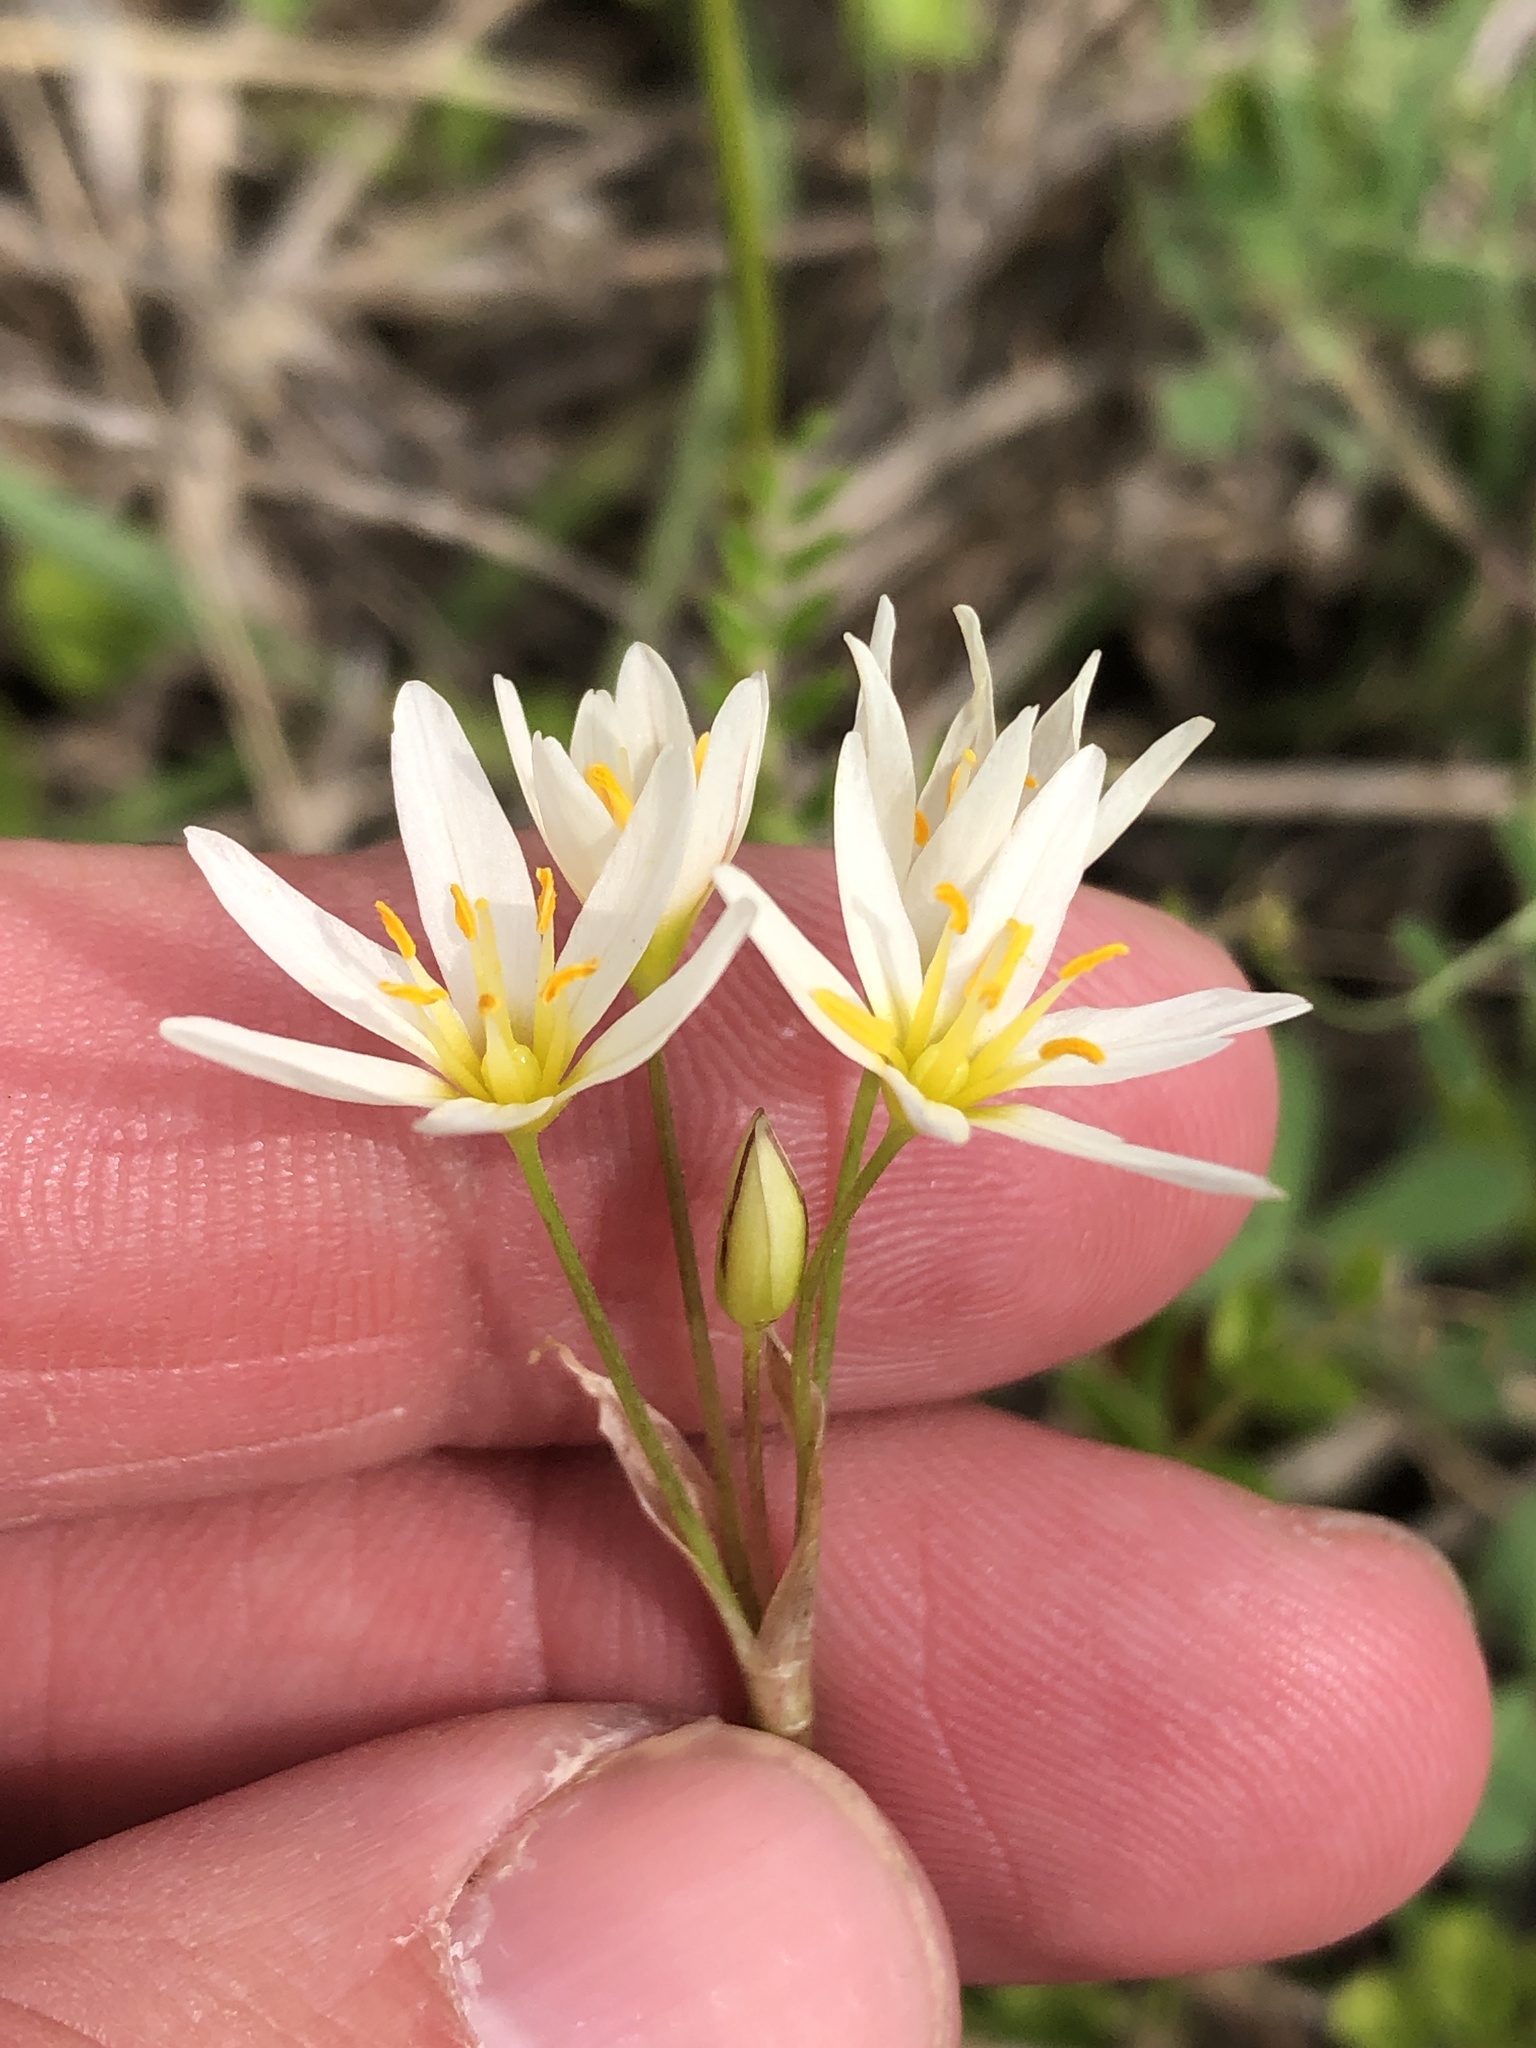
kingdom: Plantae
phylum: Tracheophyta
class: Liliopsida
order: Asparagales
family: Amaryllidaceae
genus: Nothoscordum
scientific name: Nothoscordum bivalve
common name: Crow-poison
